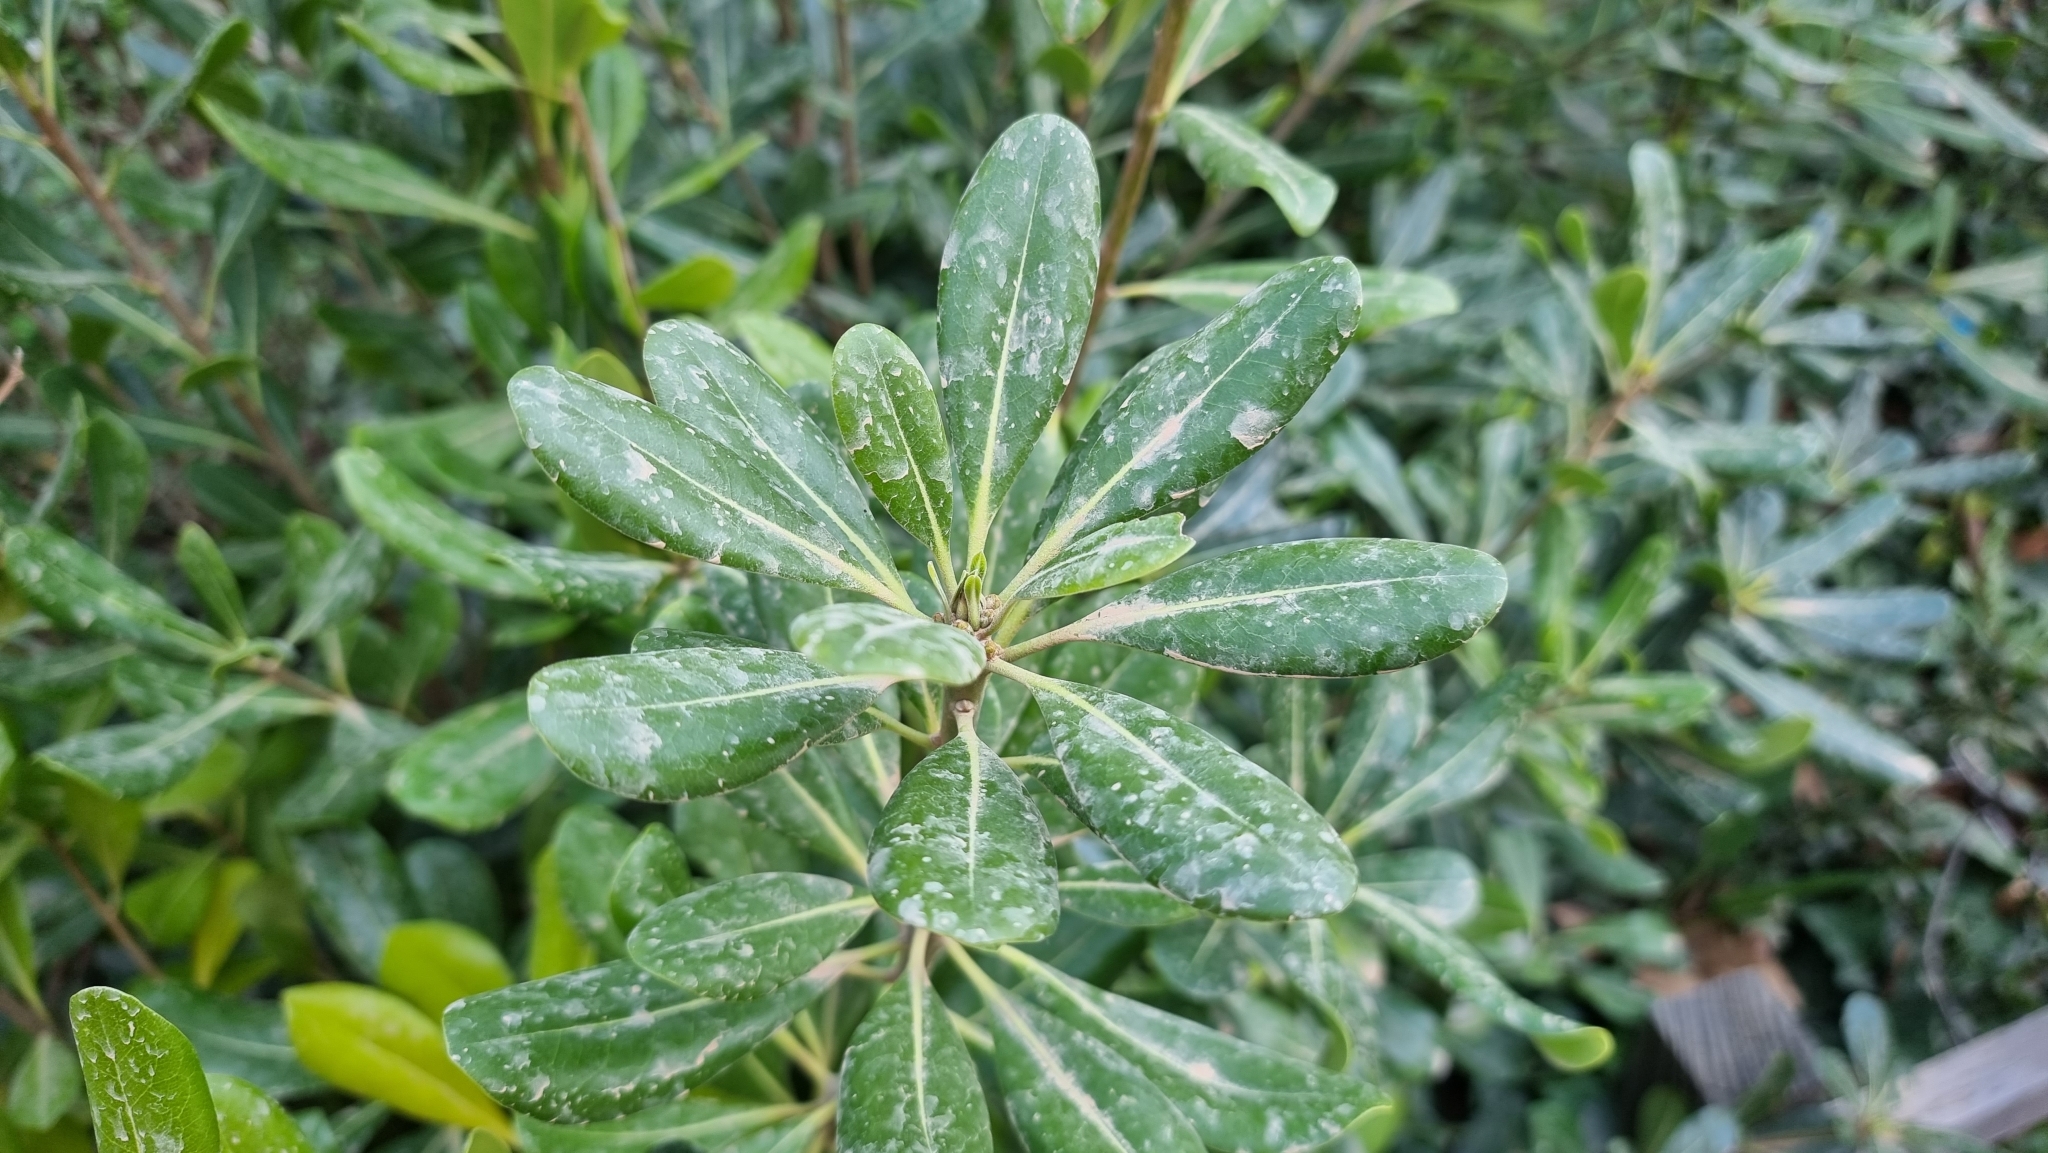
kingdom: Plantae
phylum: Tracheophyta
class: Magnoliopsida
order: Apiales
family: Pittosporaceae
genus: Pittosporum
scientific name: Pittosporum tobira
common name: Japanese cheesewood
